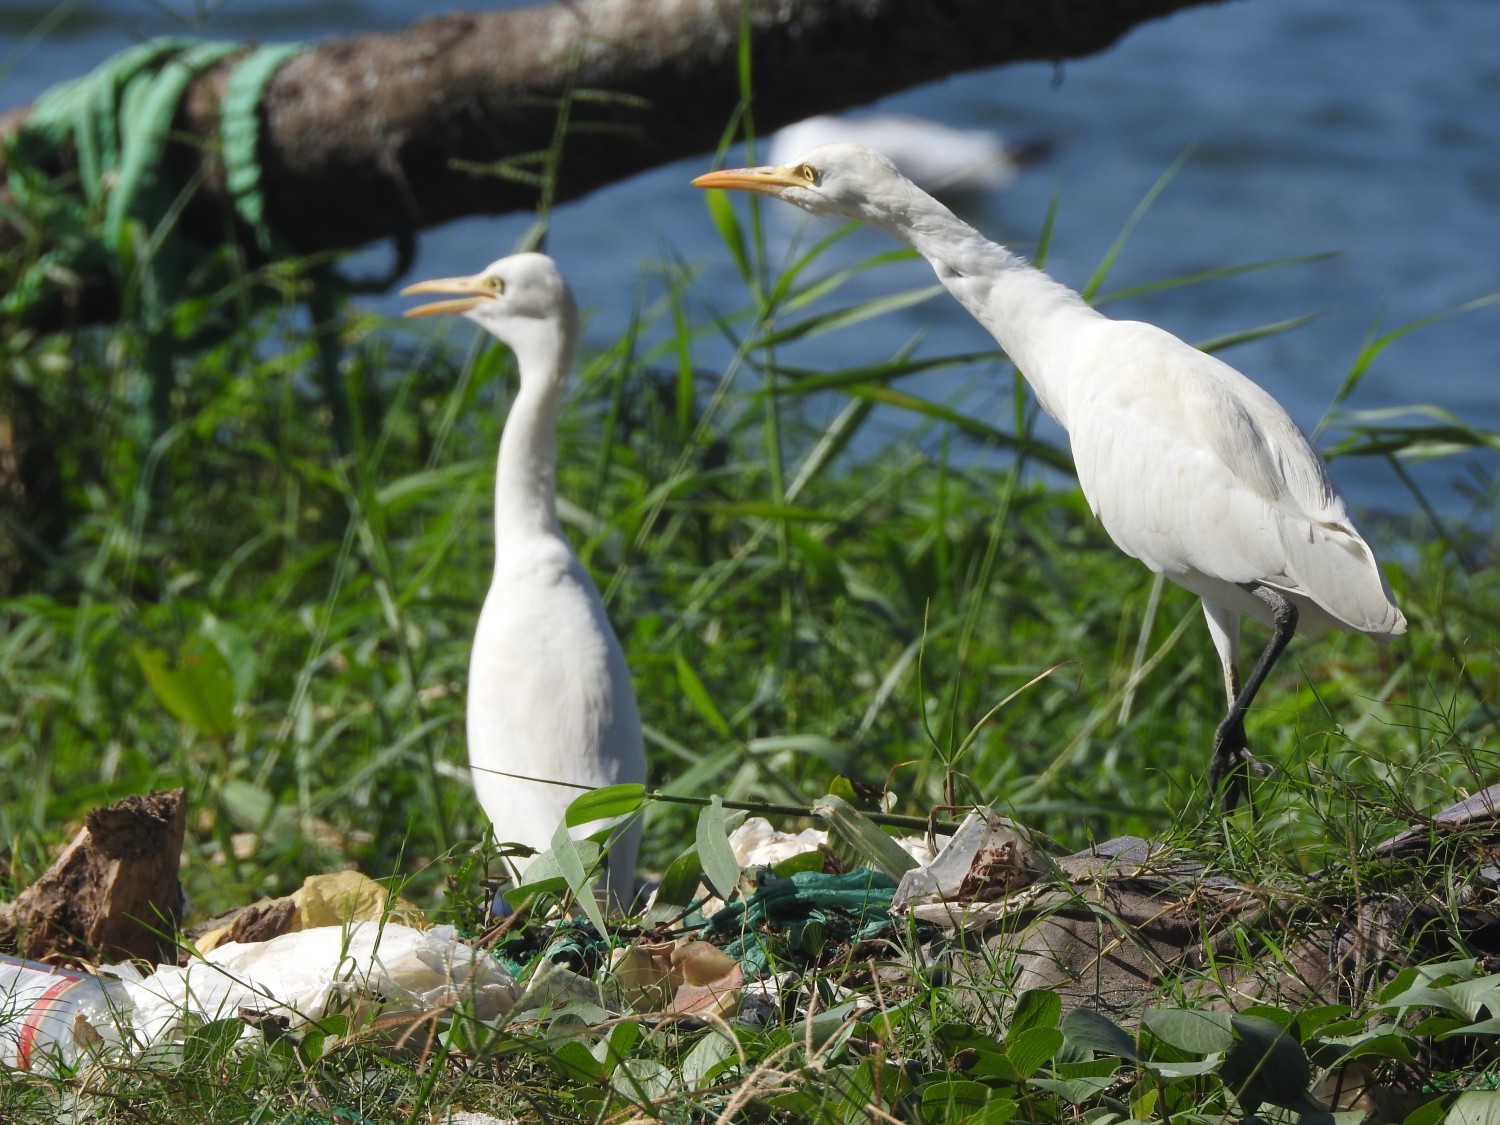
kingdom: Animalia
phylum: Chordata
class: Aves
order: Pelecaniformes
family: Ardeidae
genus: Bubulcus
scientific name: Bubulcus coromandus
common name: Eastern cattle egret
